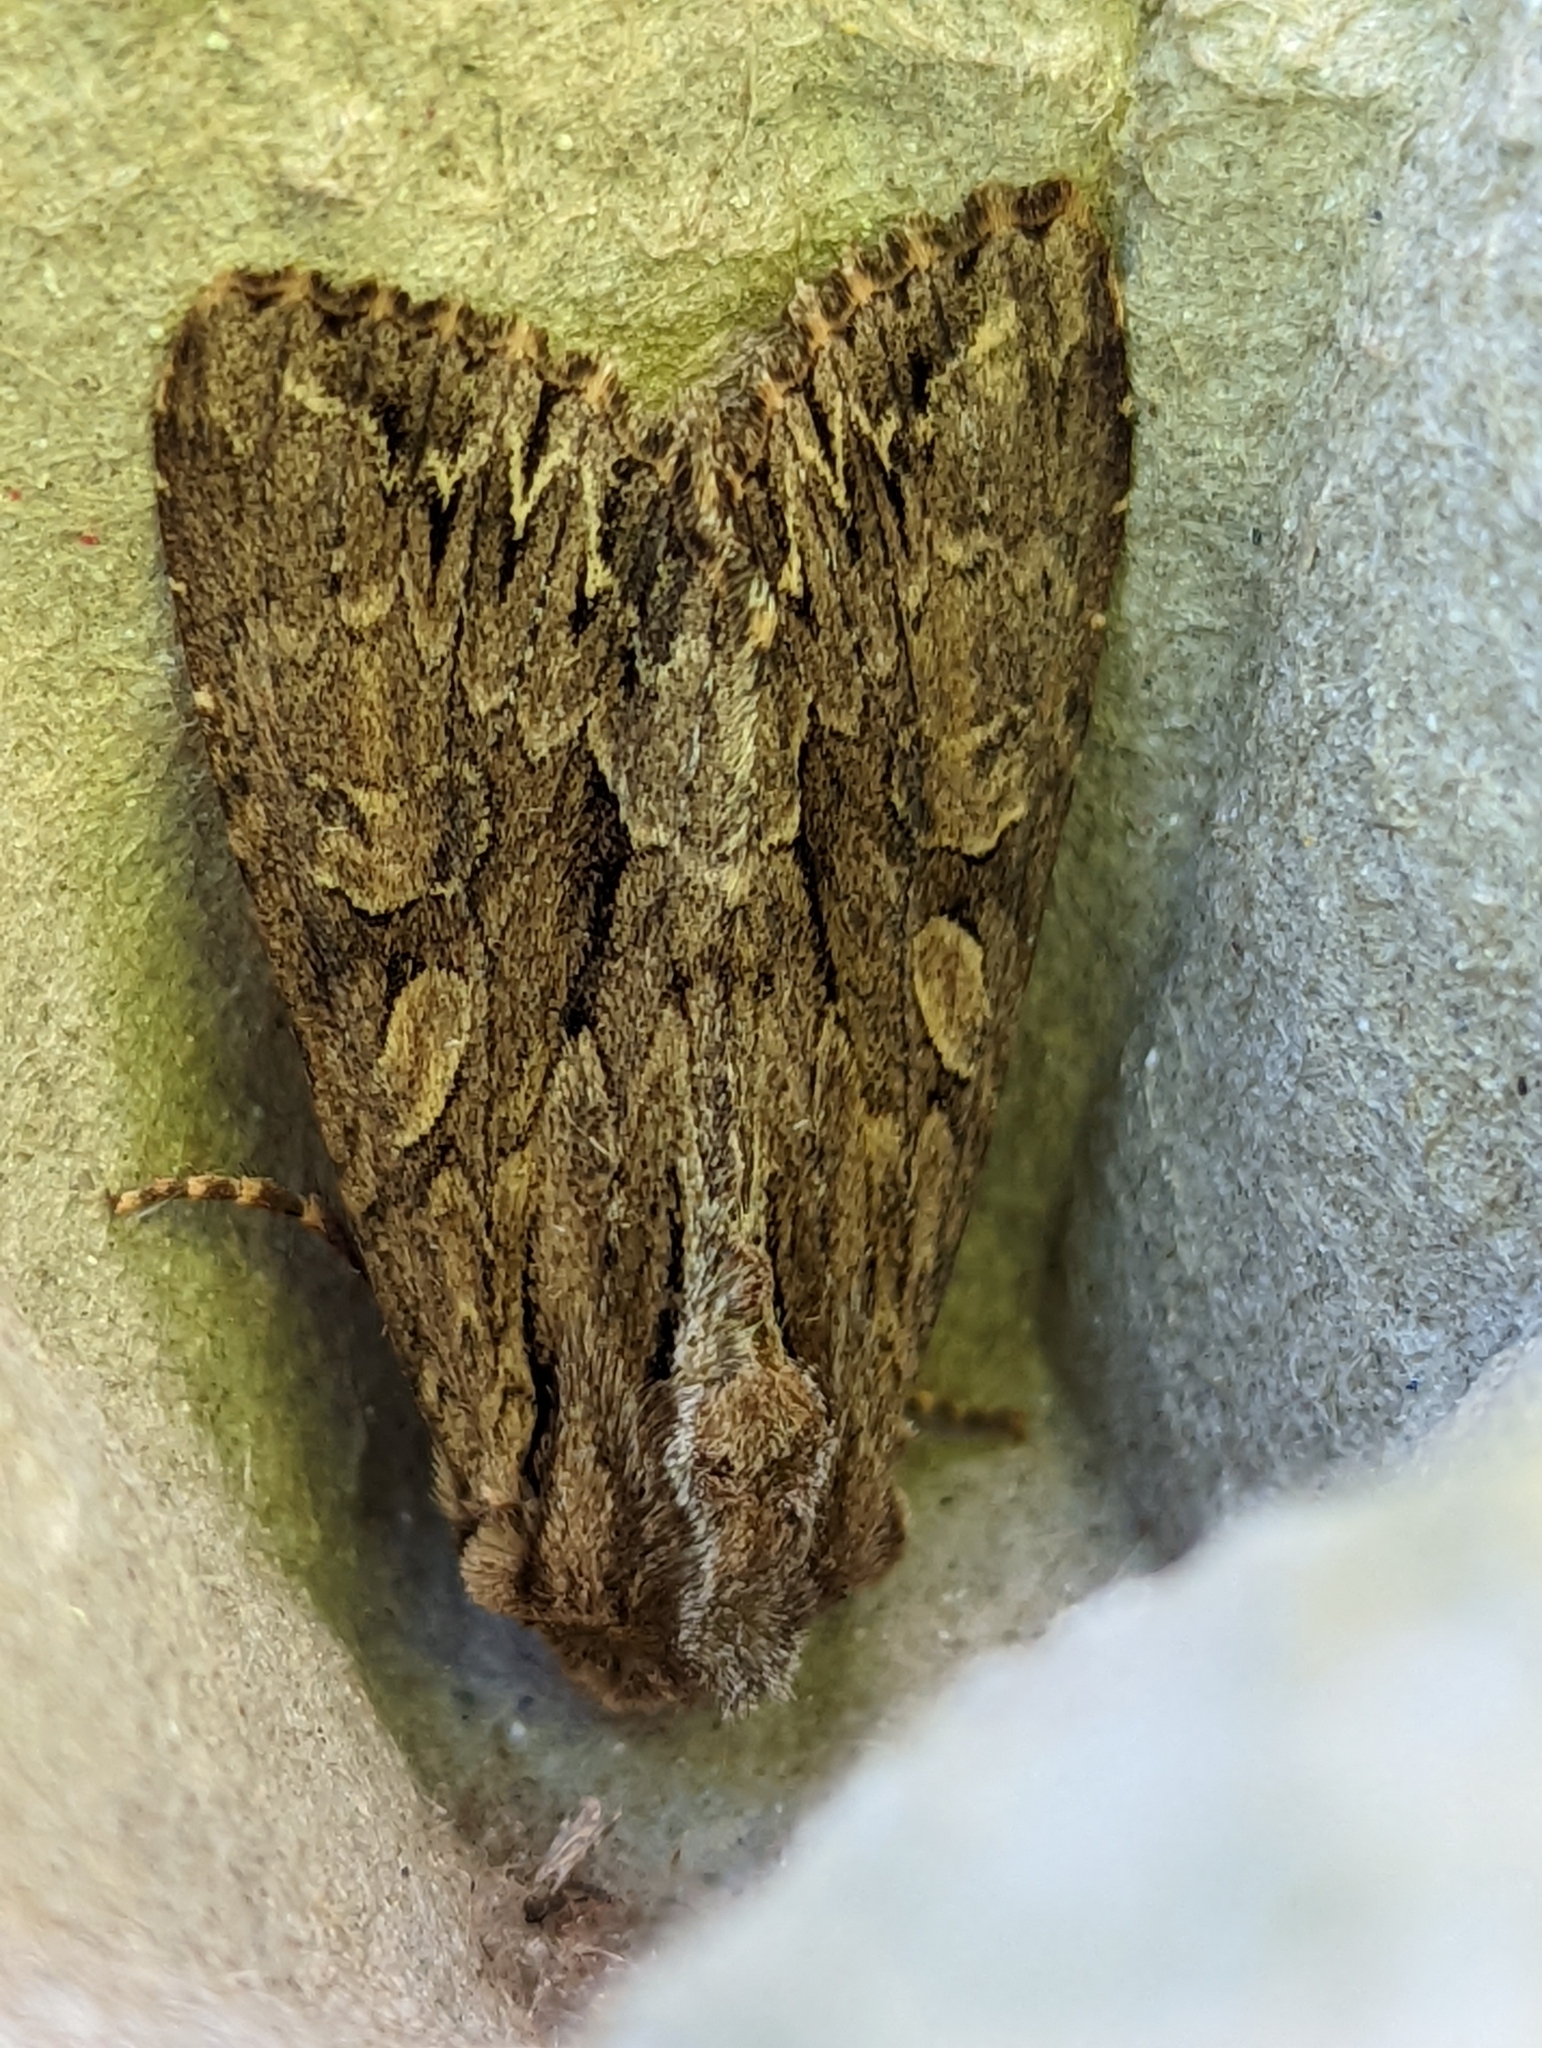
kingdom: Animalia
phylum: Arthropoda
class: Insecta
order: Lepidoptera
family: Noctuidae
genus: Apamea
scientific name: Apamea monoglypha
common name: Dark arches
